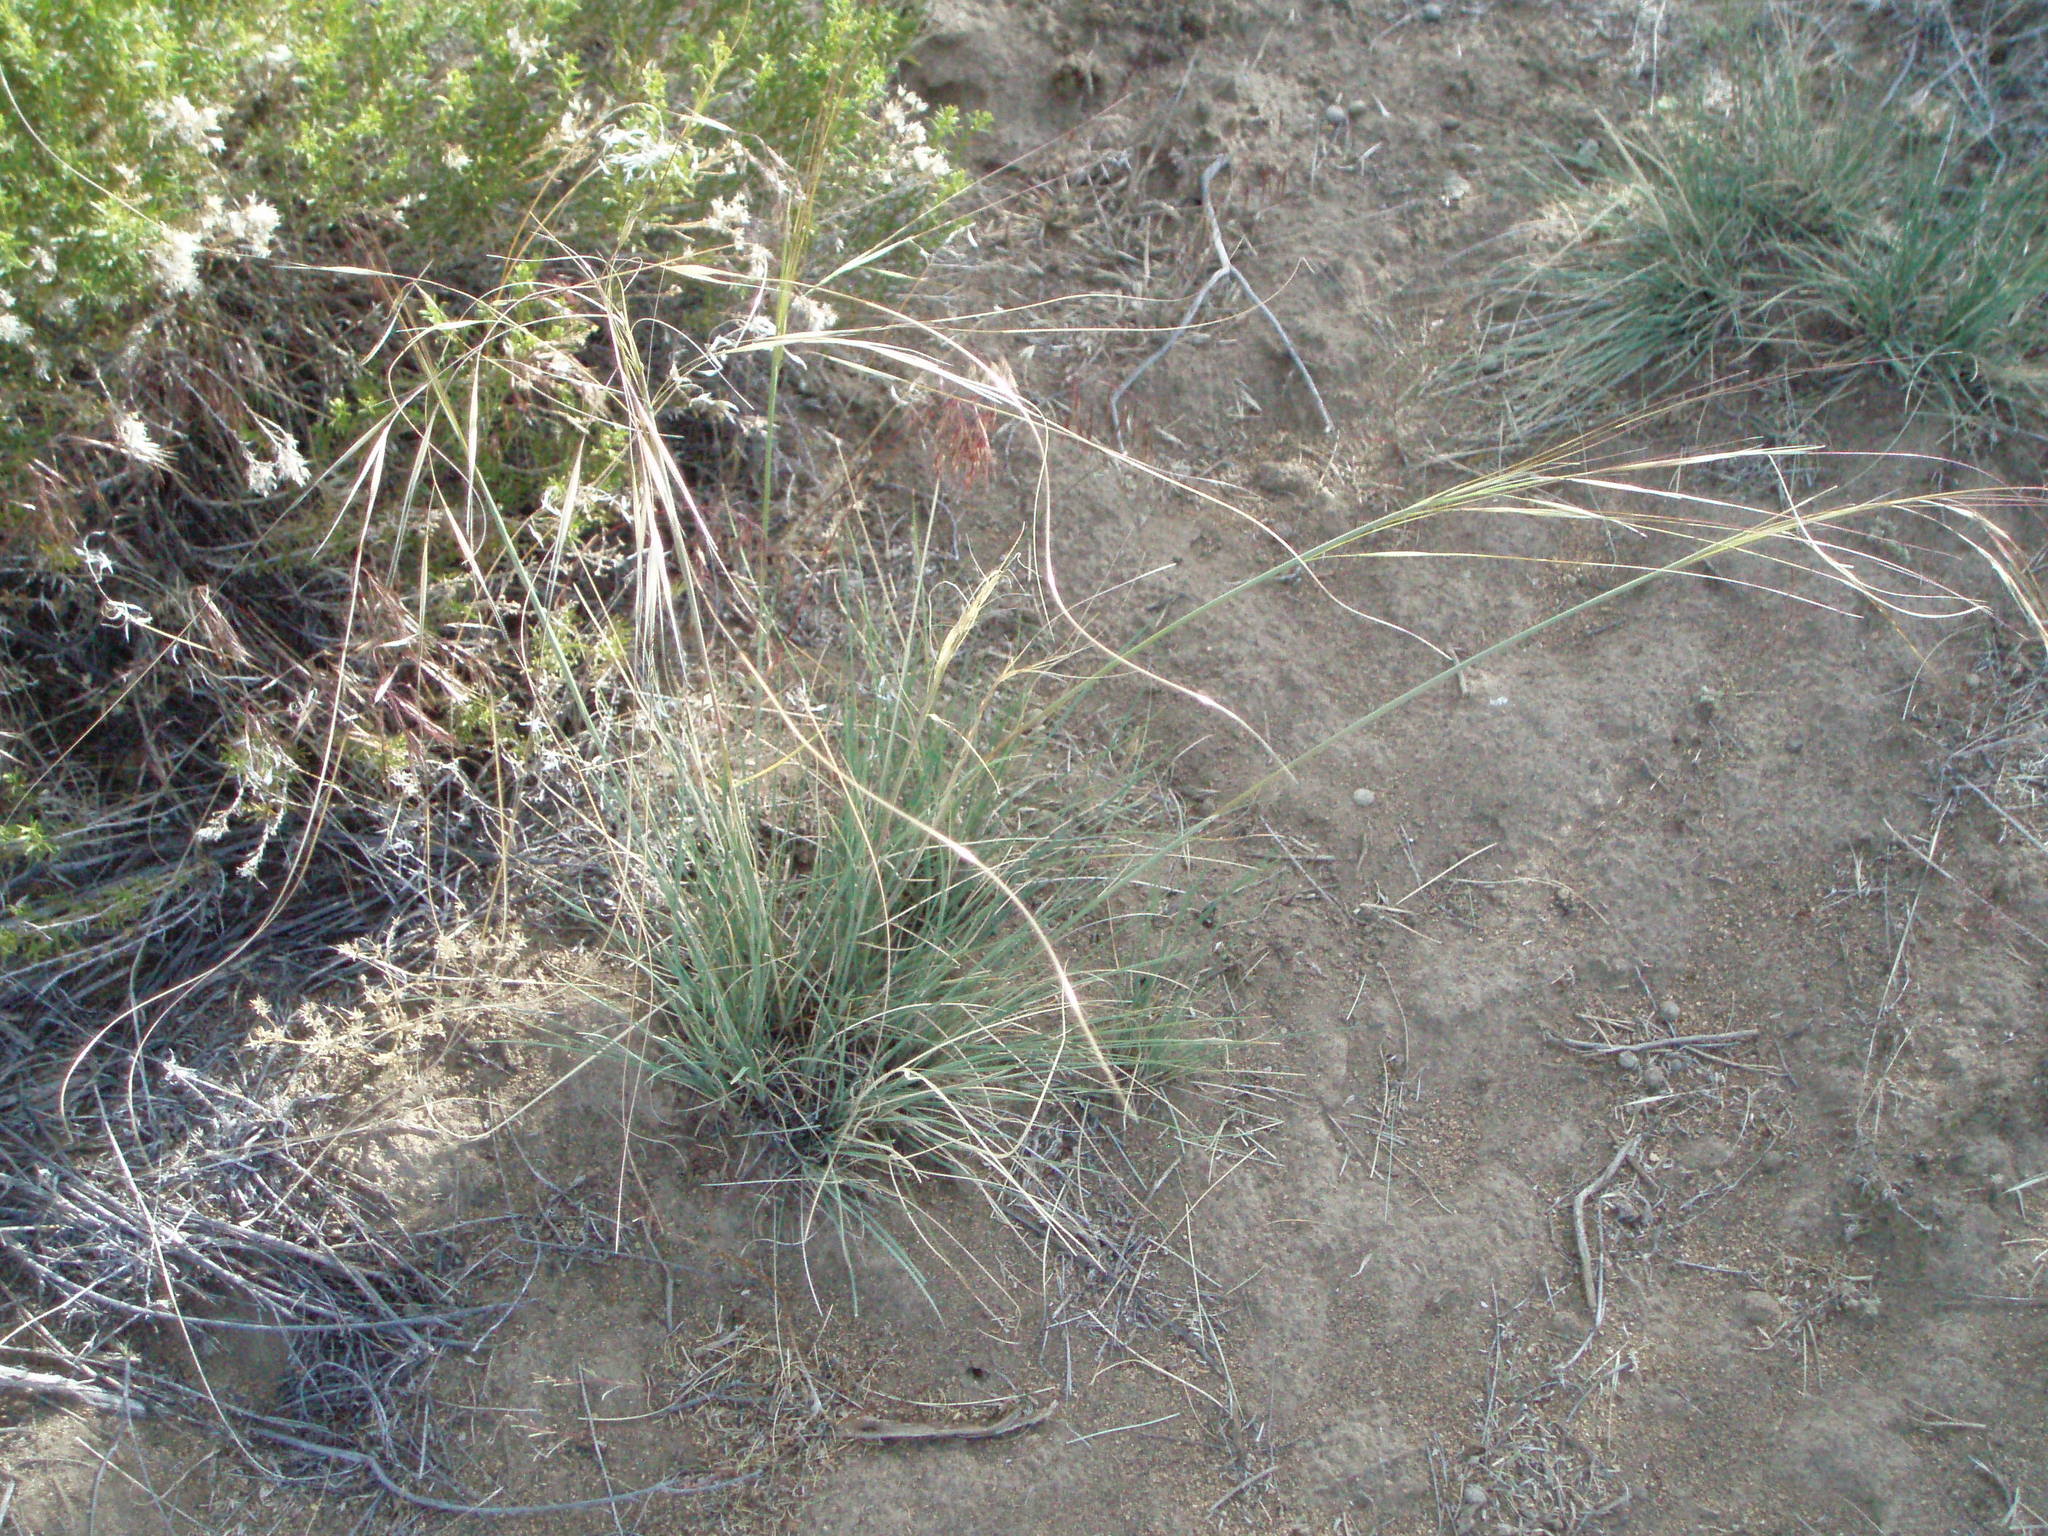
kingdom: Plantae
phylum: Tracheophyta
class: Liliopsida
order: Poales
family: Poaceae
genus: Hesperostipa
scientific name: Hesperostipa comata
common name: Needle-and-thread grass
